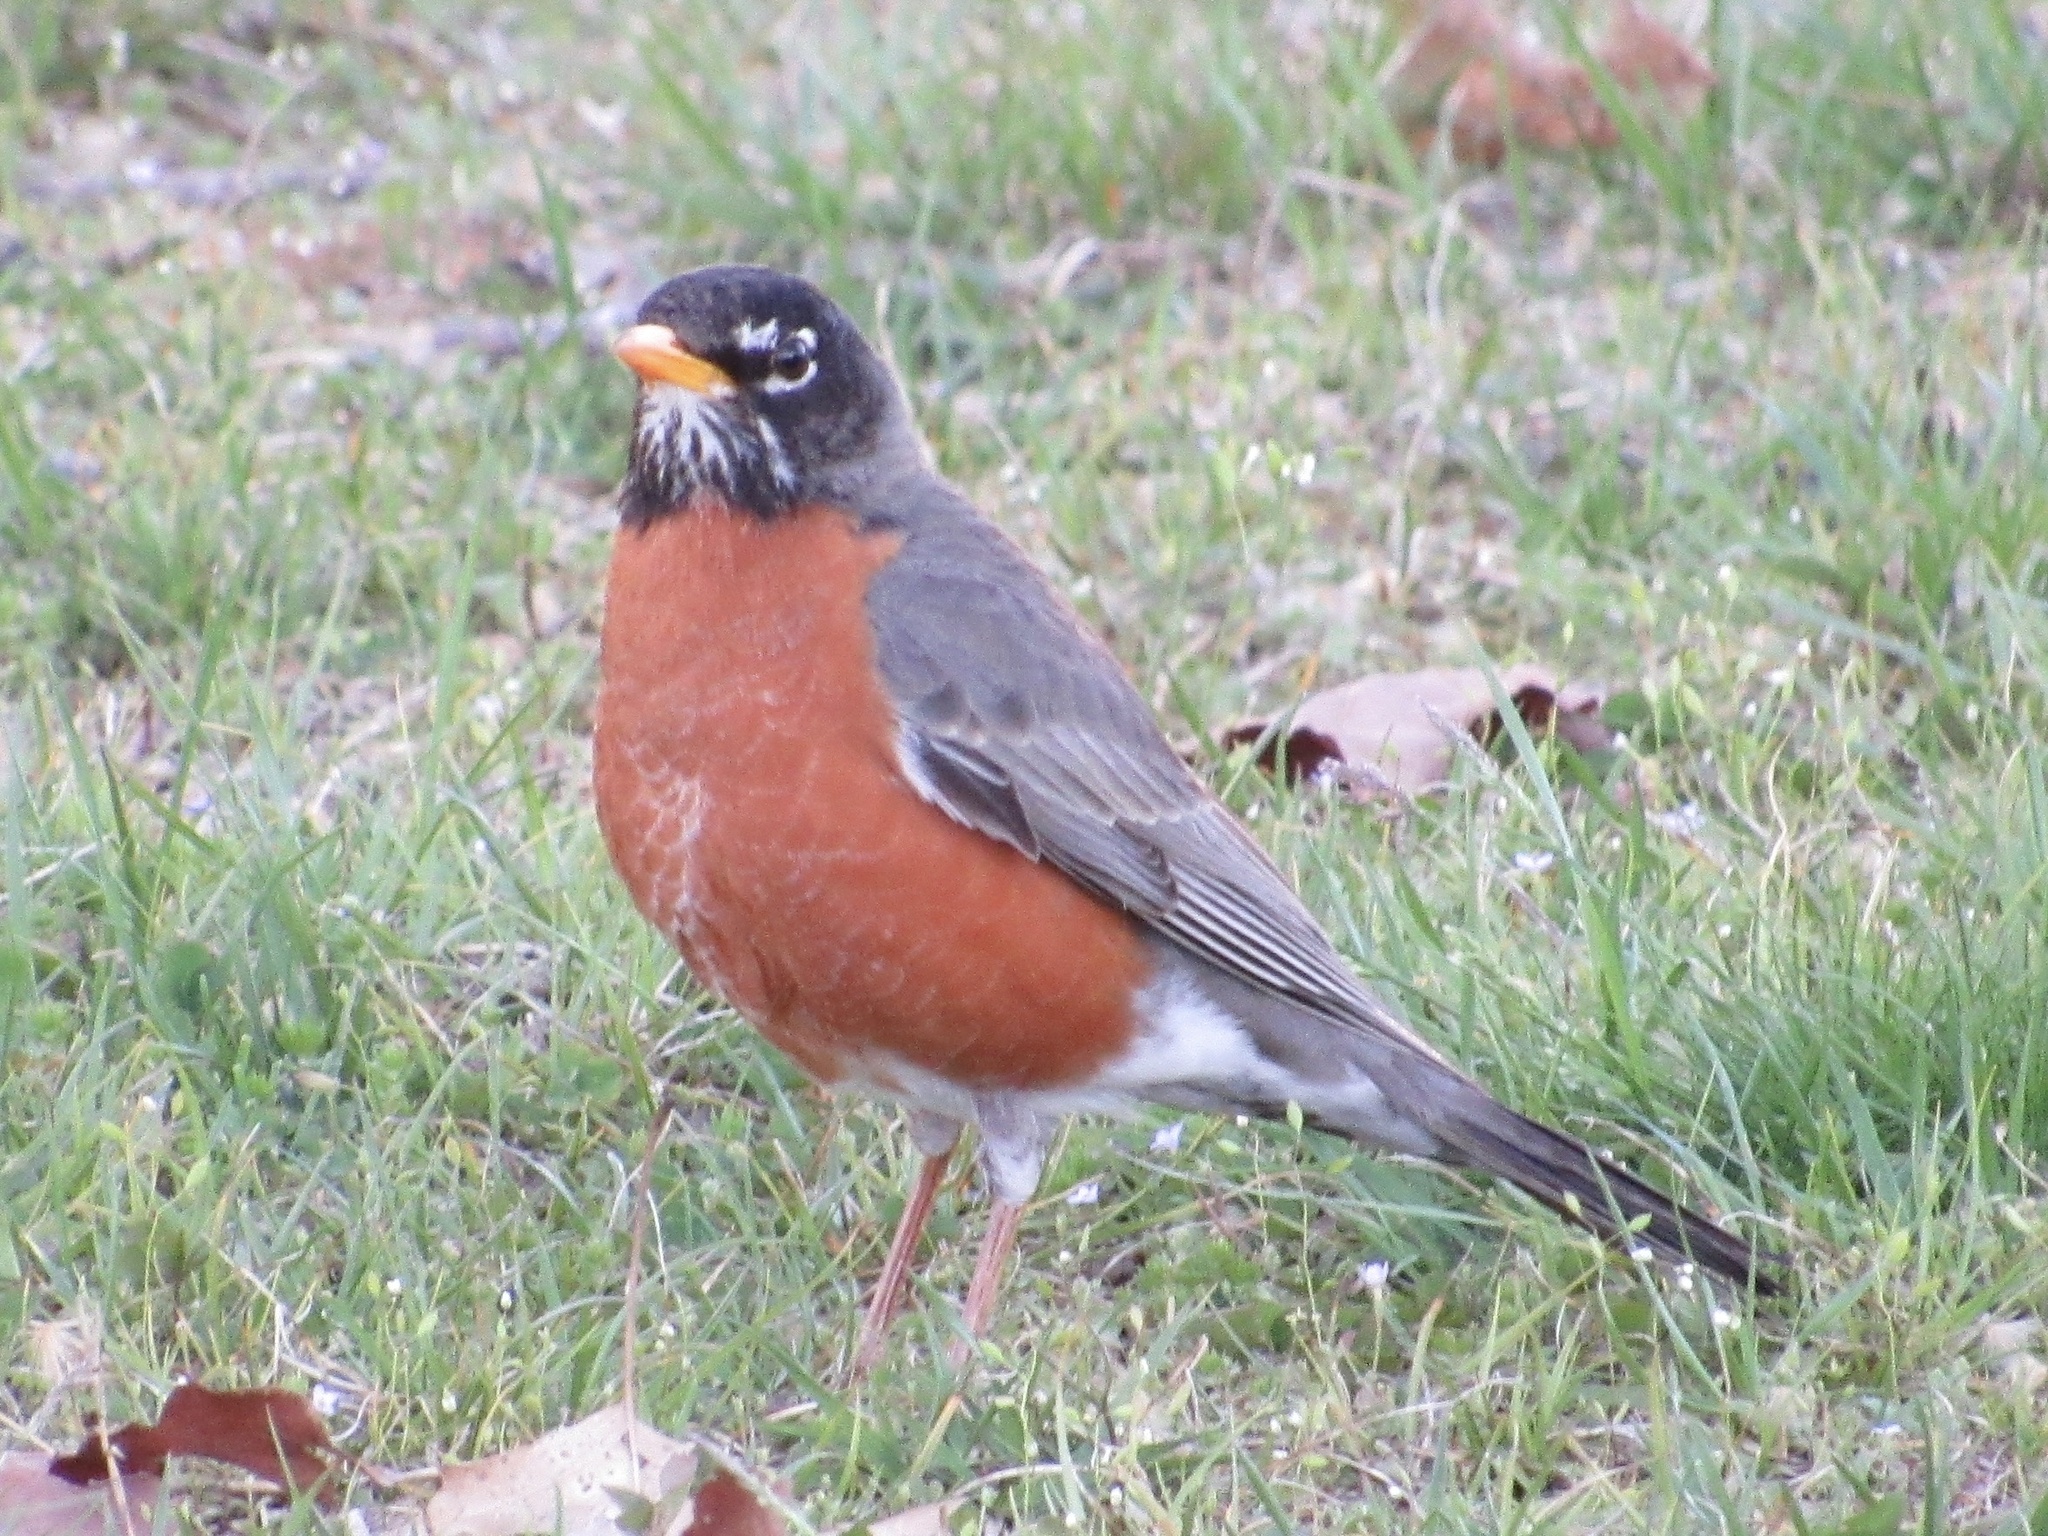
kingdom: Animalia
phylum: Chordata
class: Aves
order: Passeriformes
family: Turdidae
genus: Turdus
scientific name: Turdus migratorius
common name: American robin
